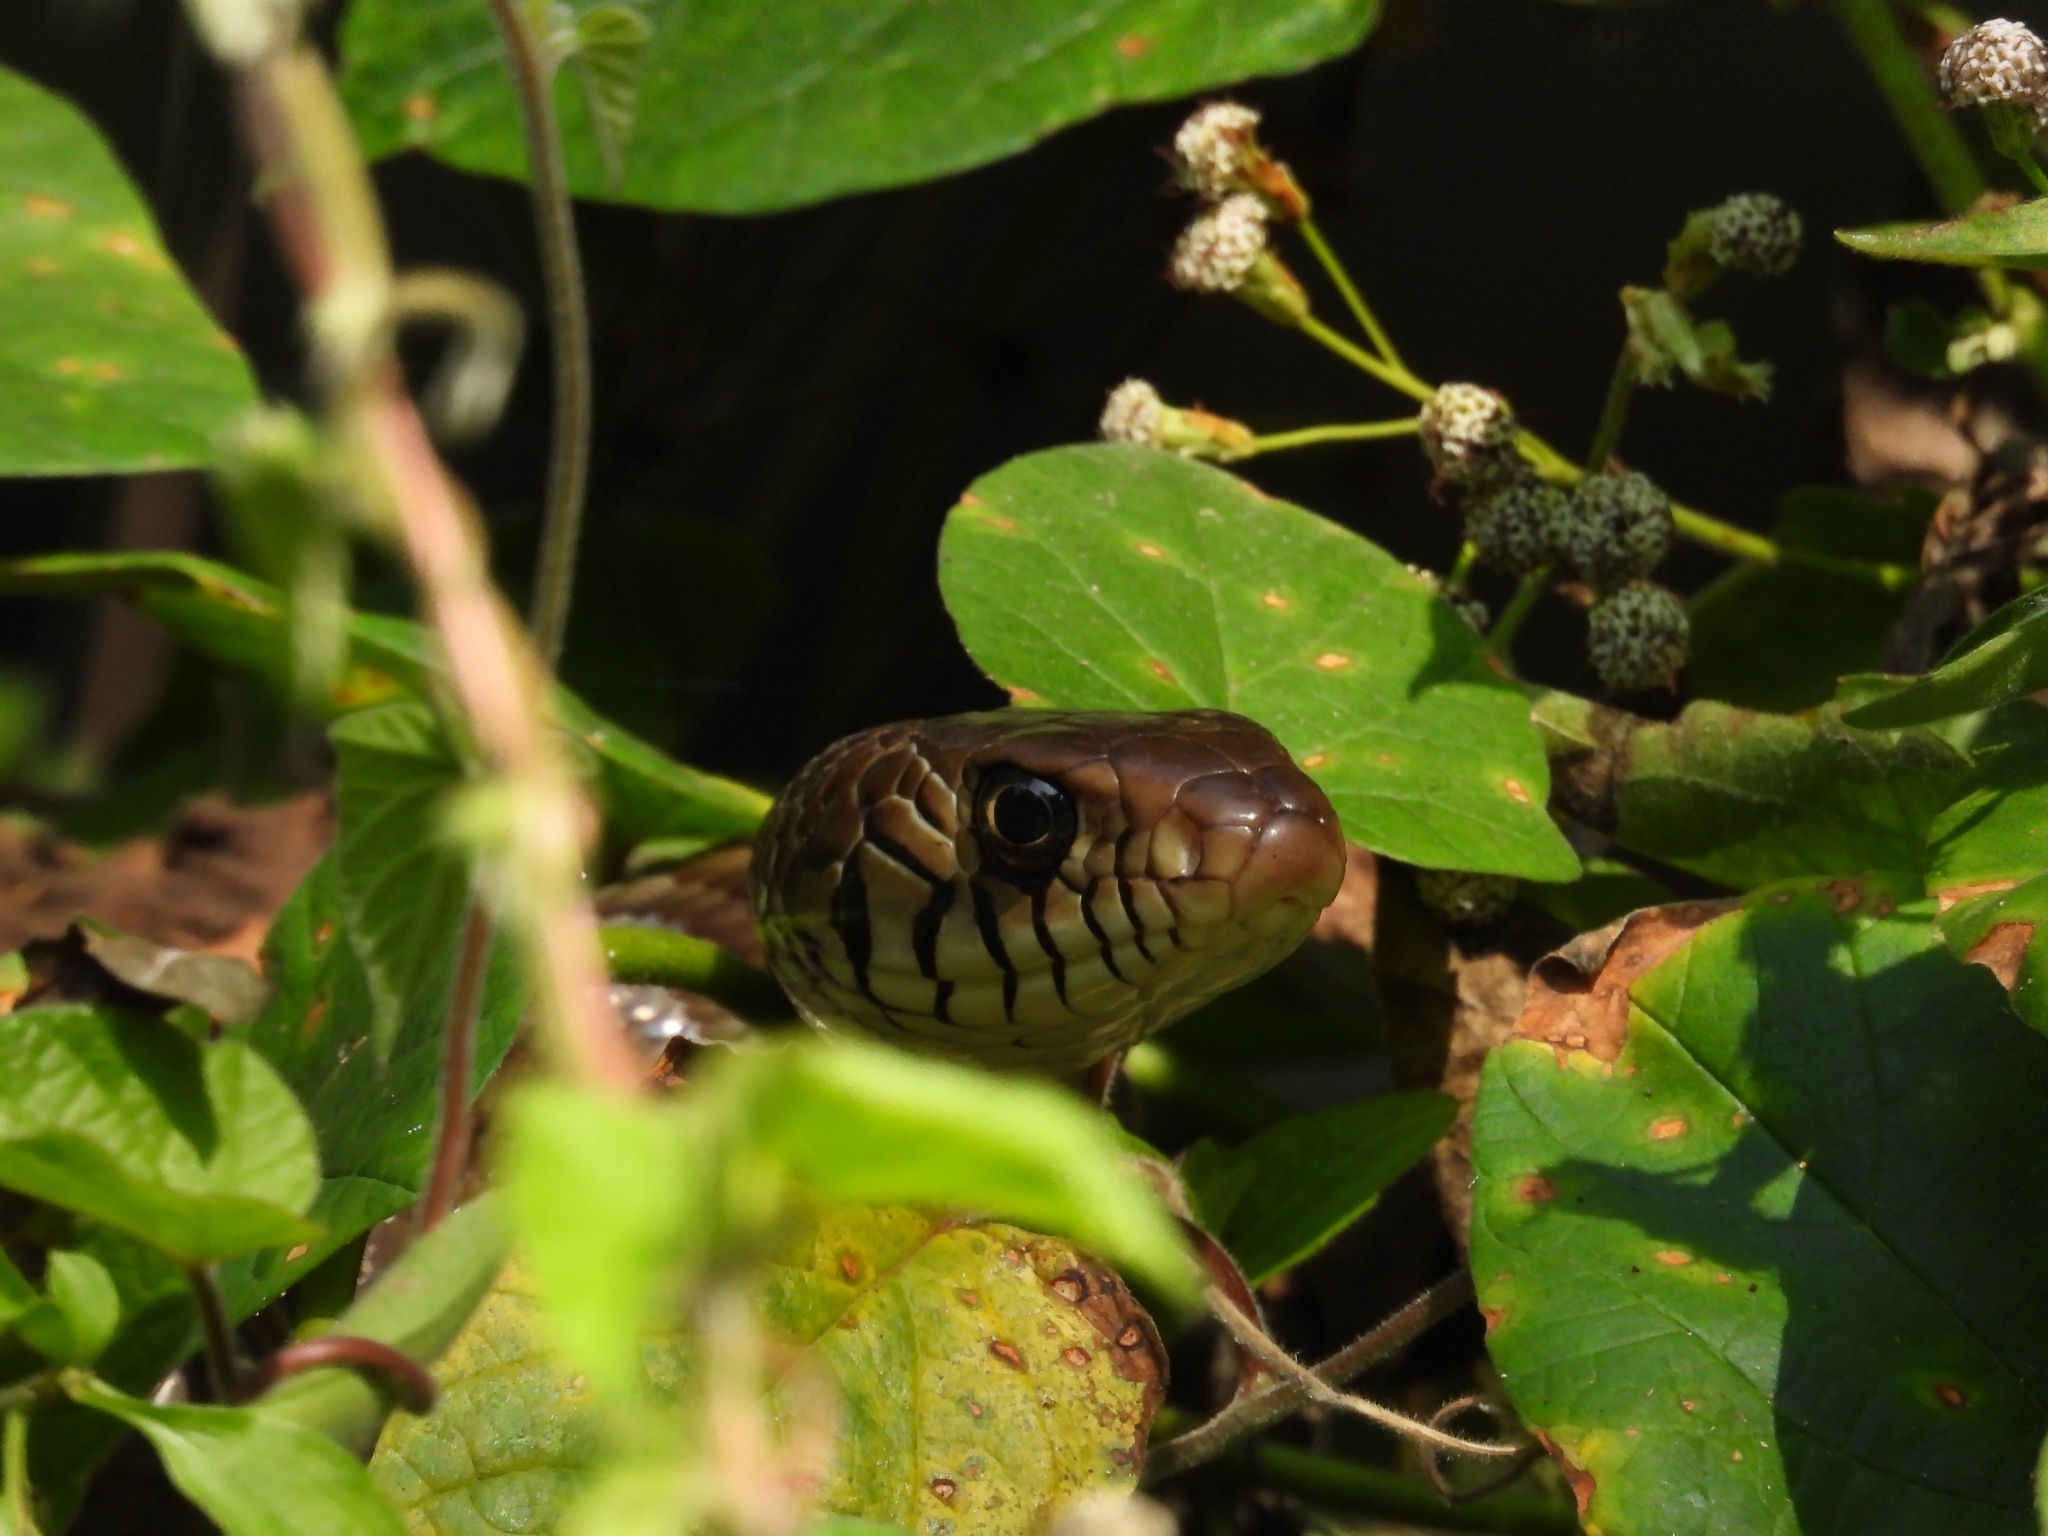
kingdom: Animalia
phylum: Chordata
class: Squamata
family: Colubridae
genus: Ptyas
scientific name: Ptyas mucosa
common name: Oriental ratsnake
